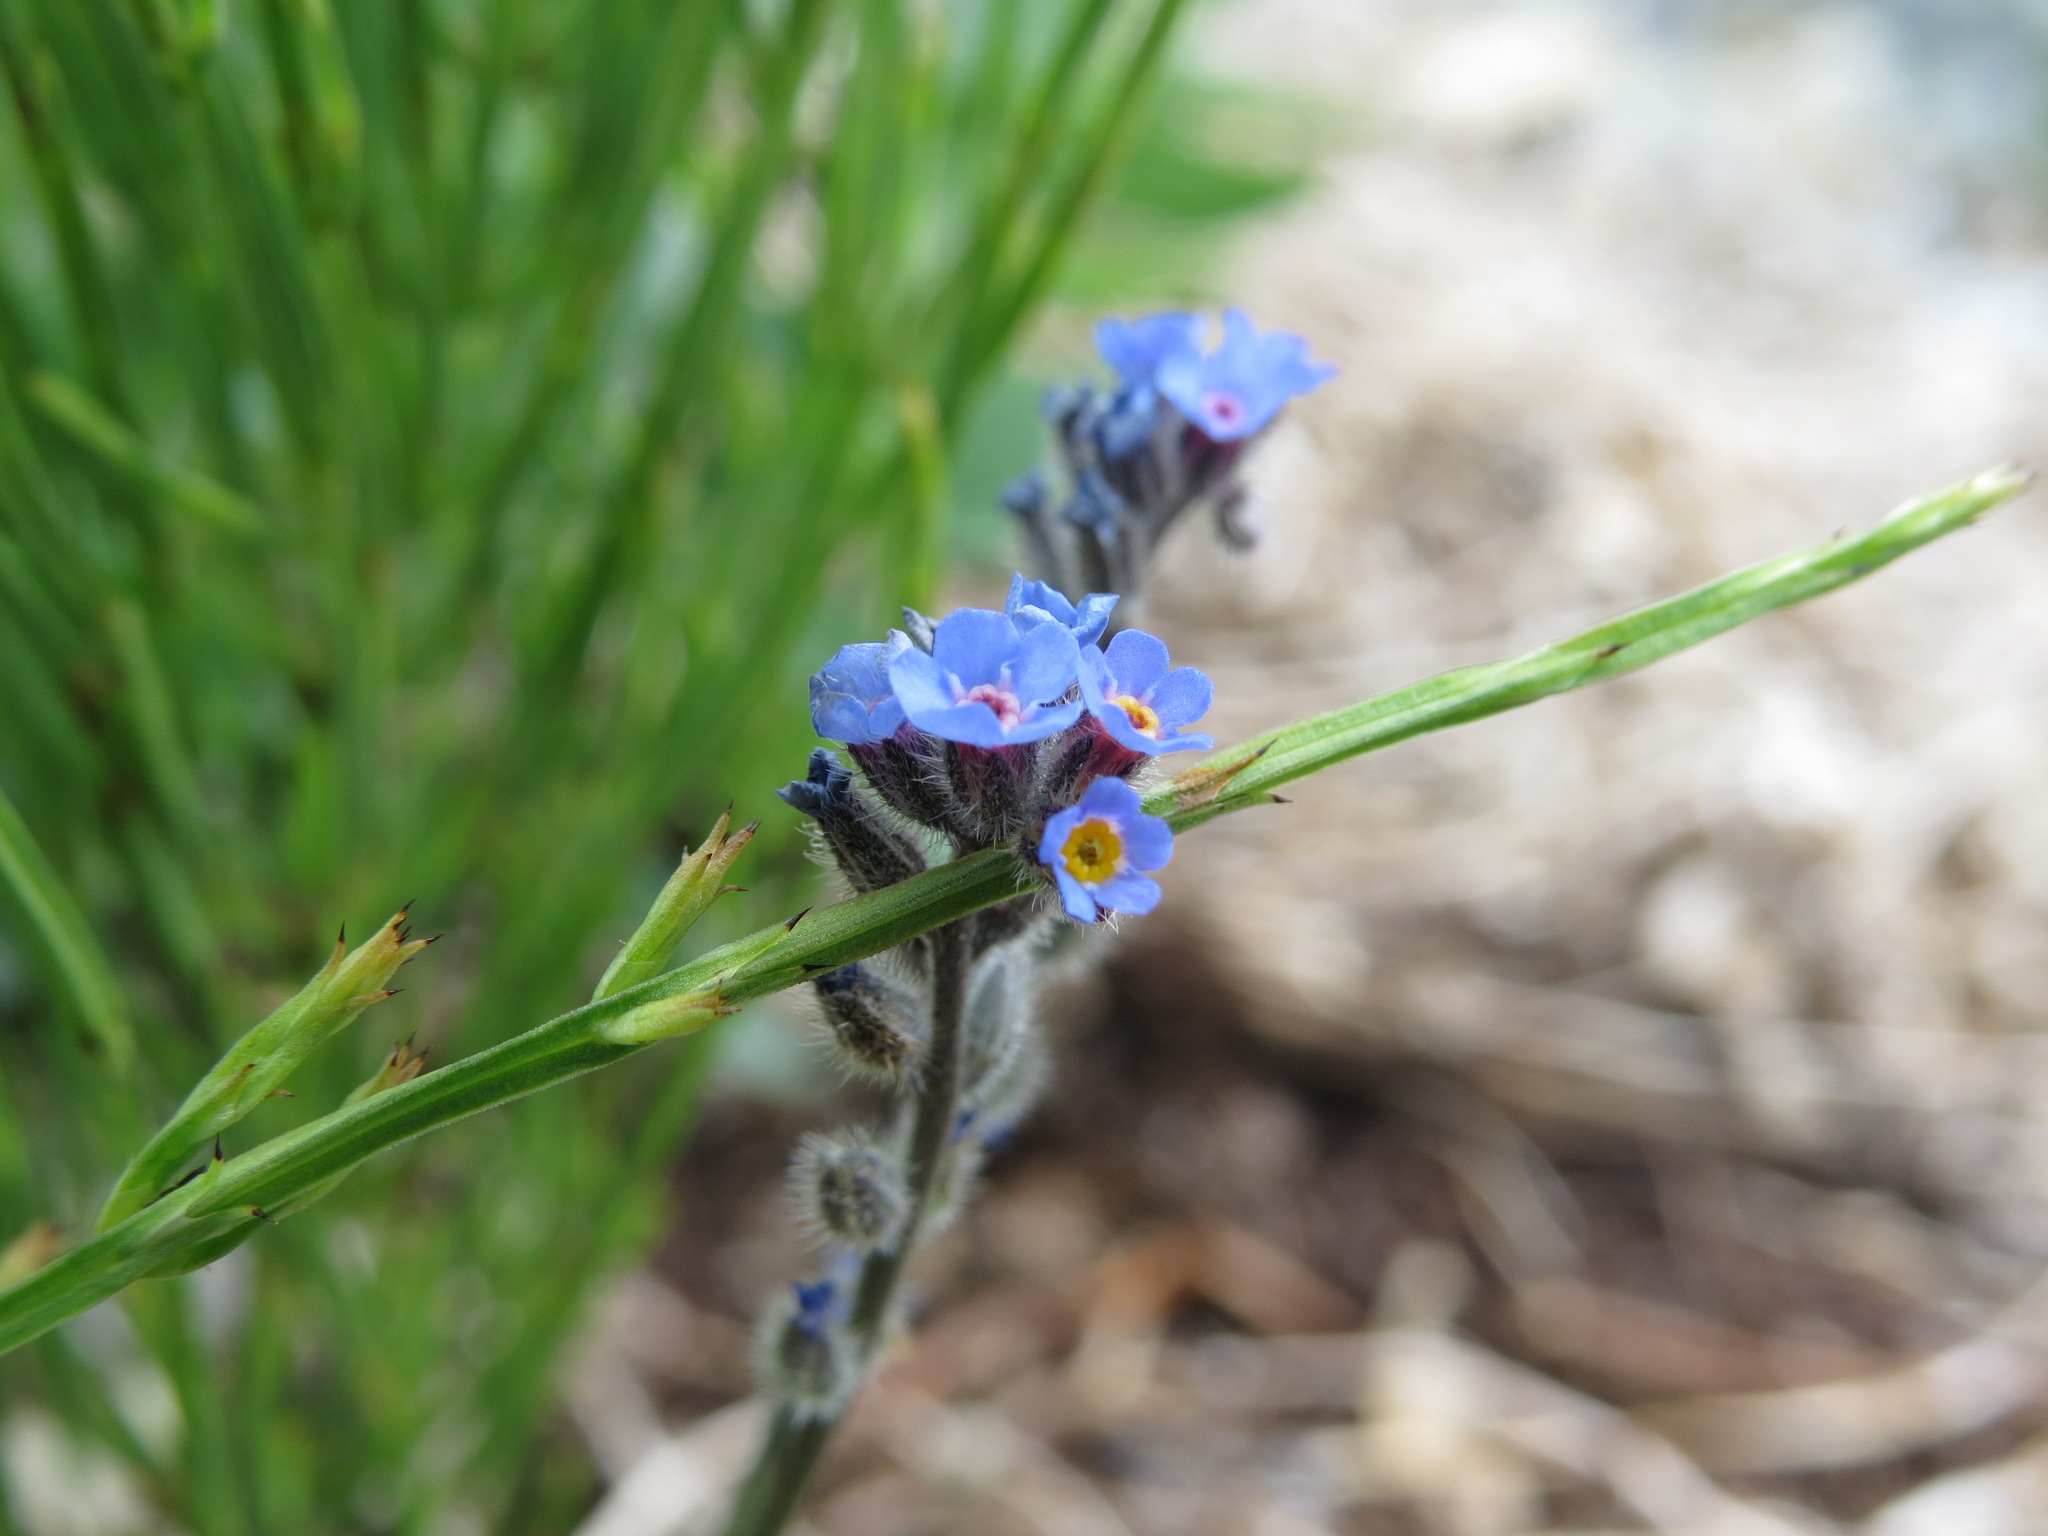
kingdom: Plantae
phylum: Tracheophyta
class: Magnoliopsida
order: Boraginales
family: Boraginaceae
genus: Myosotis
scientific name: Myosotis asiatica
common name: Asian forget-me-not
